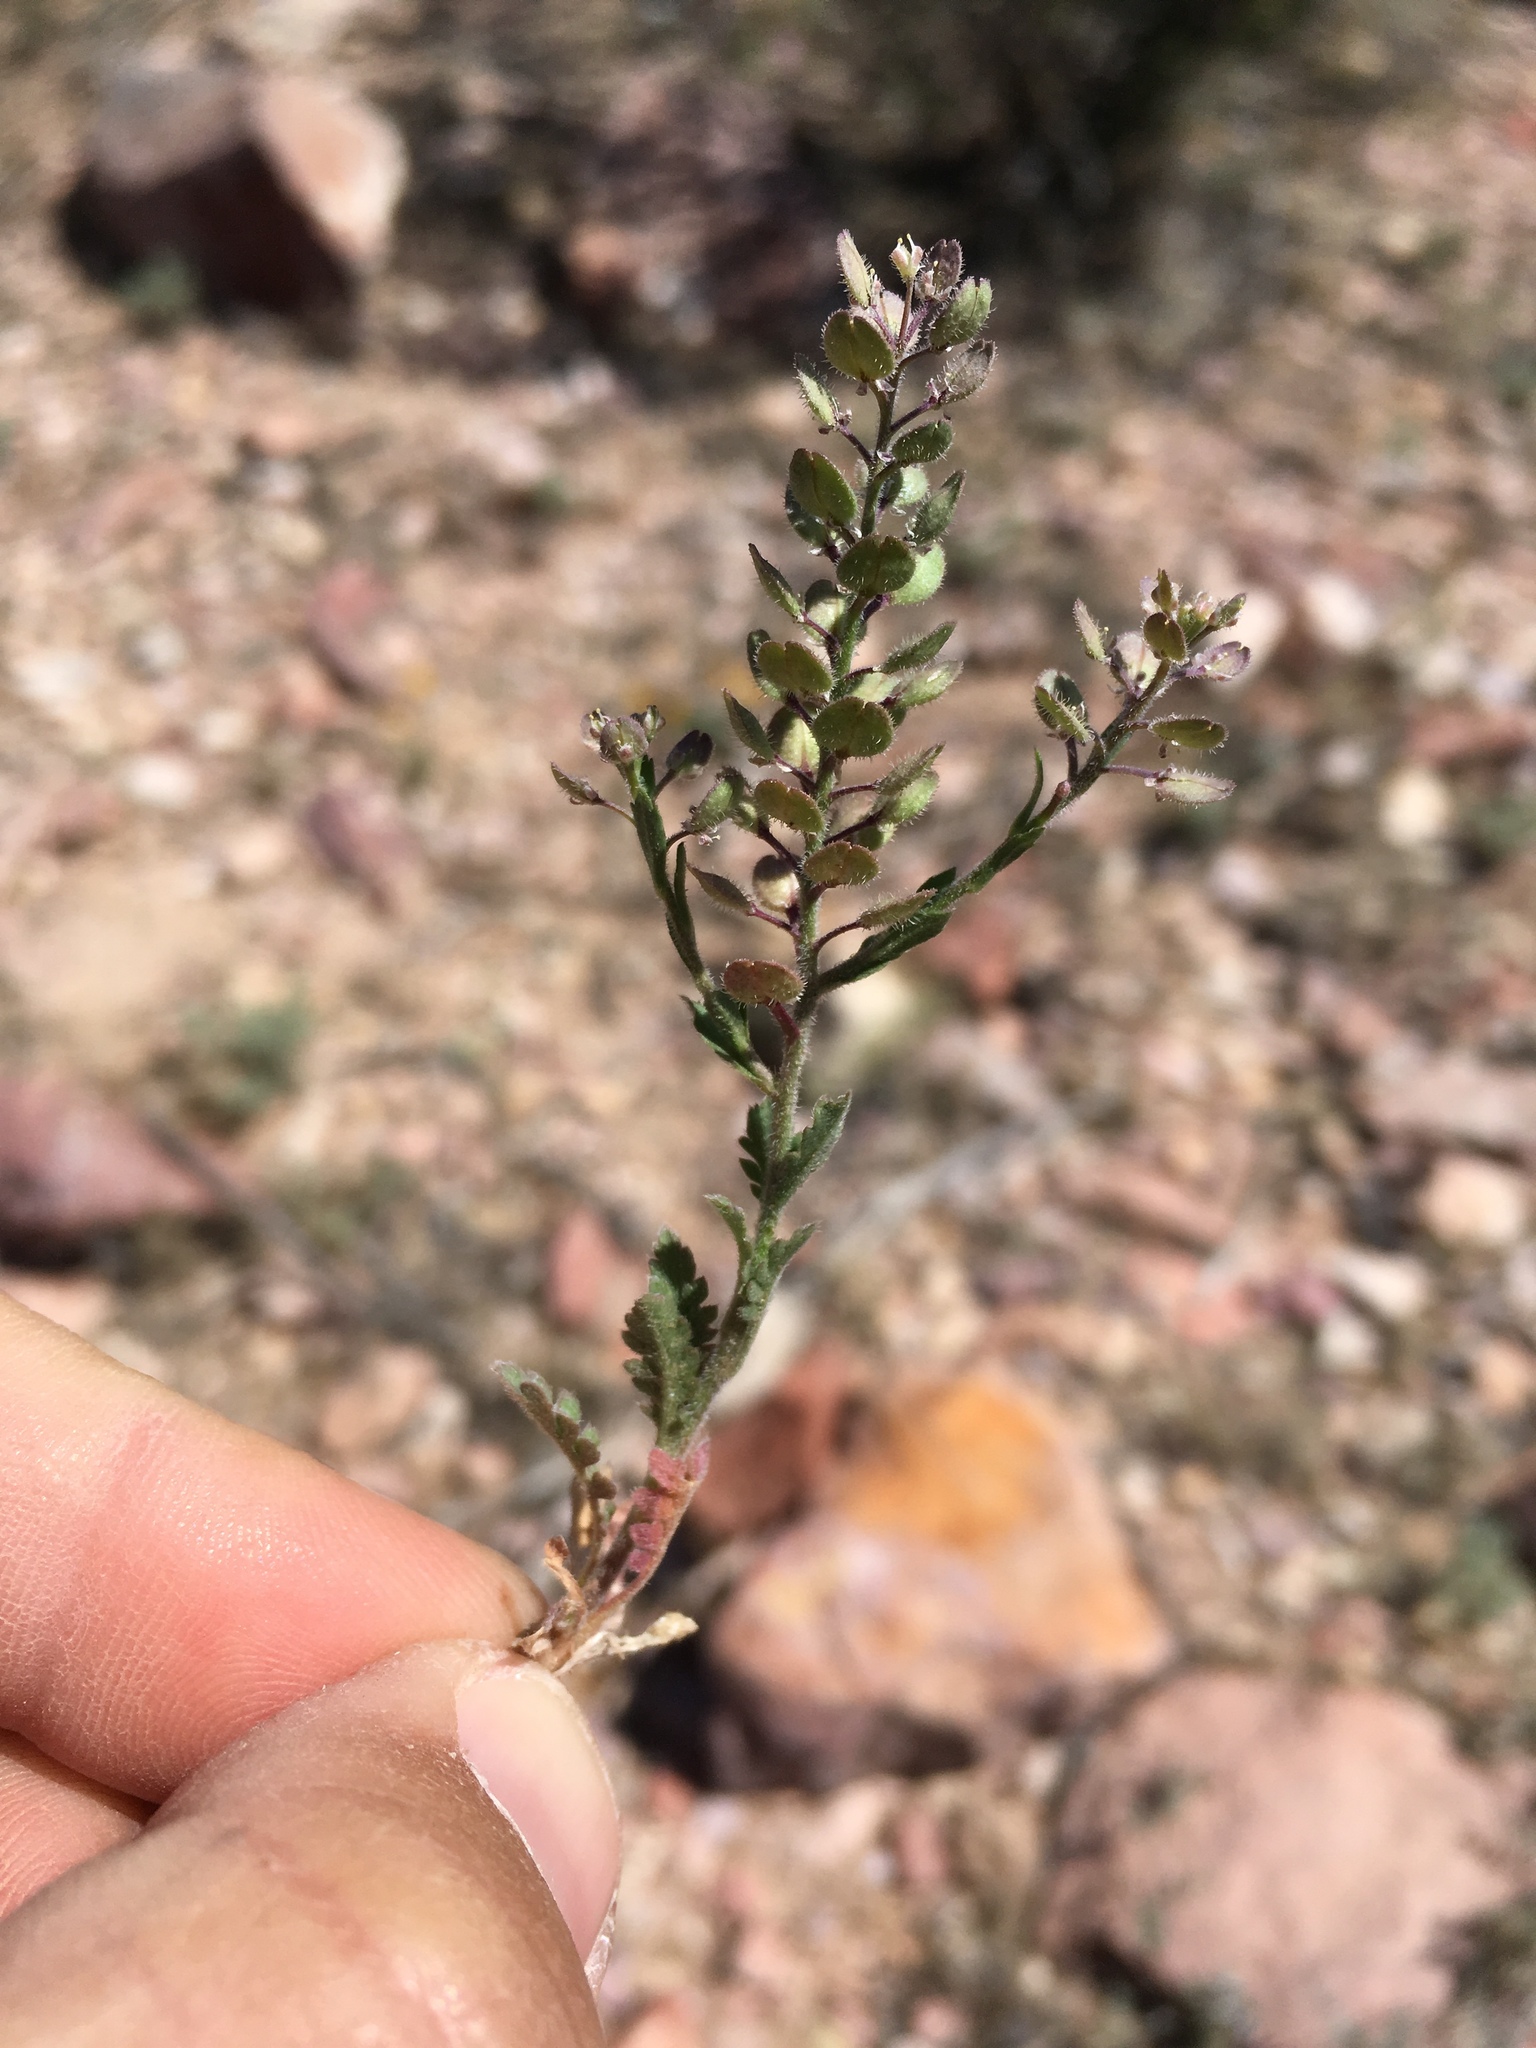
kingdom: Plantae
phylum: Tracheophyta
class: Magnoliopsida
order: Brassicales
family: Brassicaceae
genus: Lepidium
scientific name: Lepidium lasiocarpum
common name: Hairy-pod pepperwort
